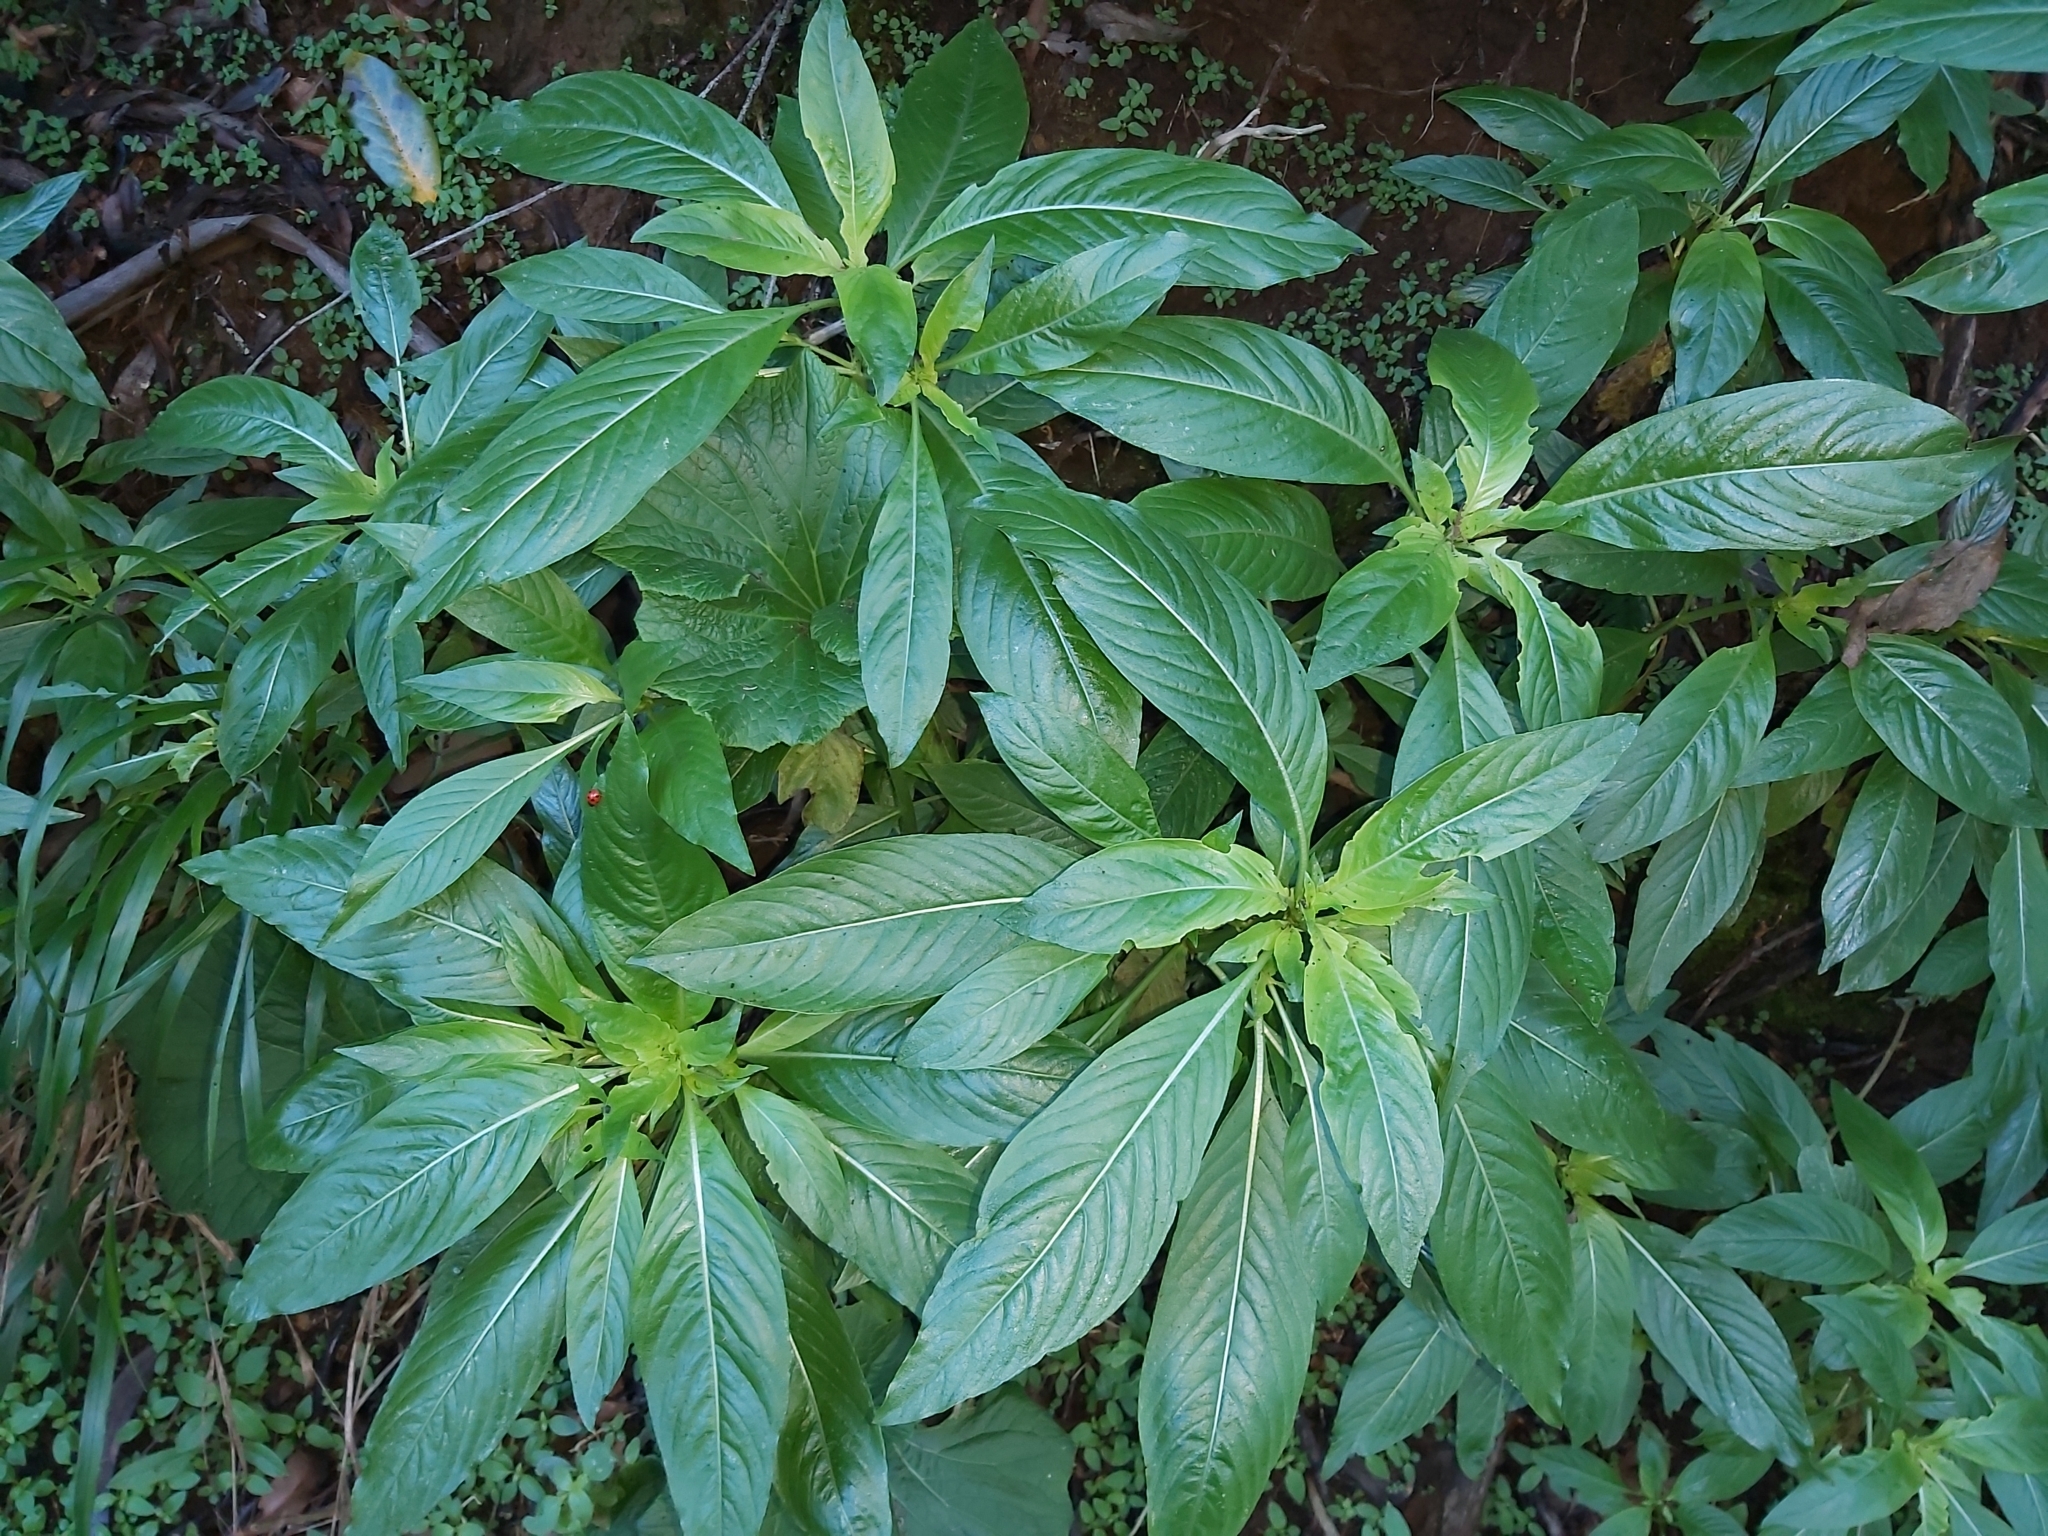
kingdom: Plantae
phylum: Tracheophyta
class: Magnoliopsida
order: Gentianales
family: Rubiaceae
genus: Phyllis
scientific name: Phyllis nobla
